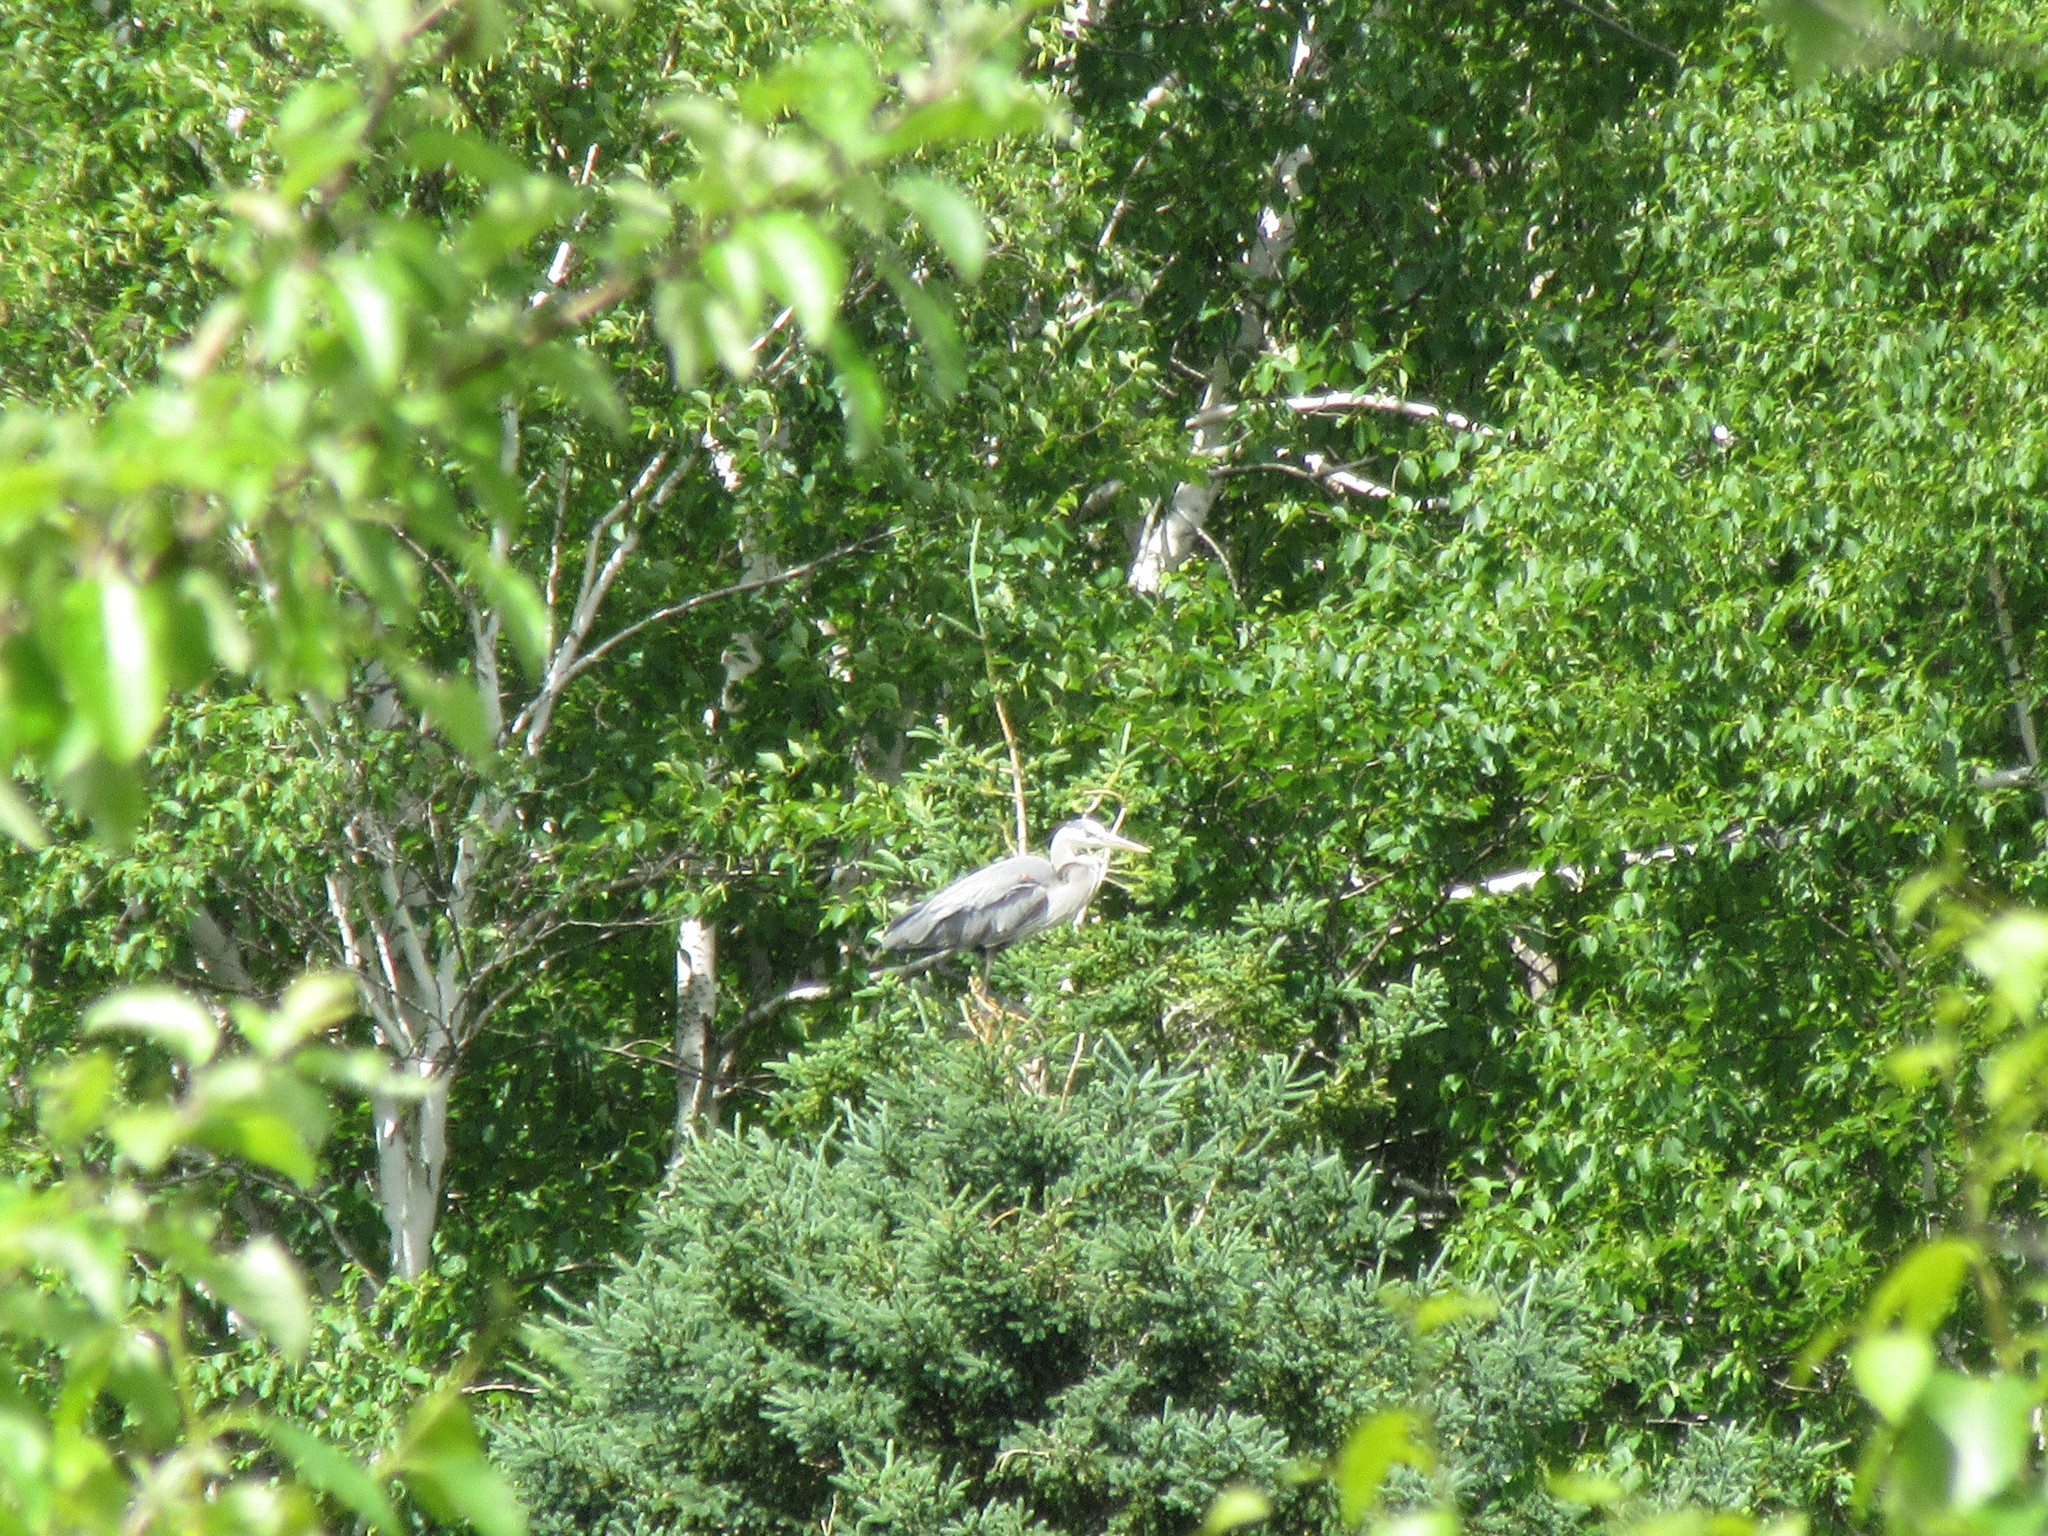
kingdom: Animalia
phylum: Chordata
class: Aves
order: Pelecaniformes
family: Ardeidae
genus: Ardea
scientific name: Ardea herodias
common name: Great blue heron
